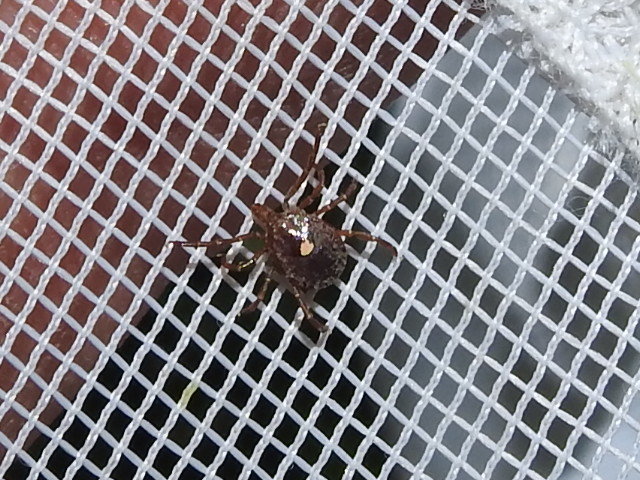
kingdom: Animalia
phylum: Arthropoda
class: Arachnida
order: Ixodida
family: Ixodidae
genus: Amblyomma
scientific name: Amblyomma americanum
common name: Lone star tick
